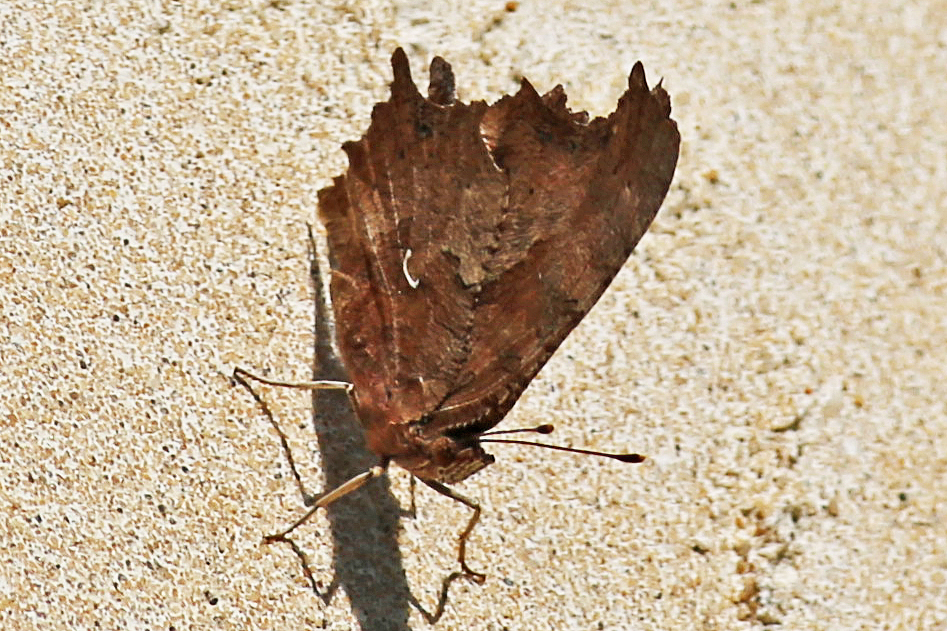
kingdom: Animalia
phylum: Arthropoda
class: Insecta
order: Lepidoptera
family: Nymphalidae
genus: Polygonia
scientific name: Polygonia comma
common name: Eastern comma
